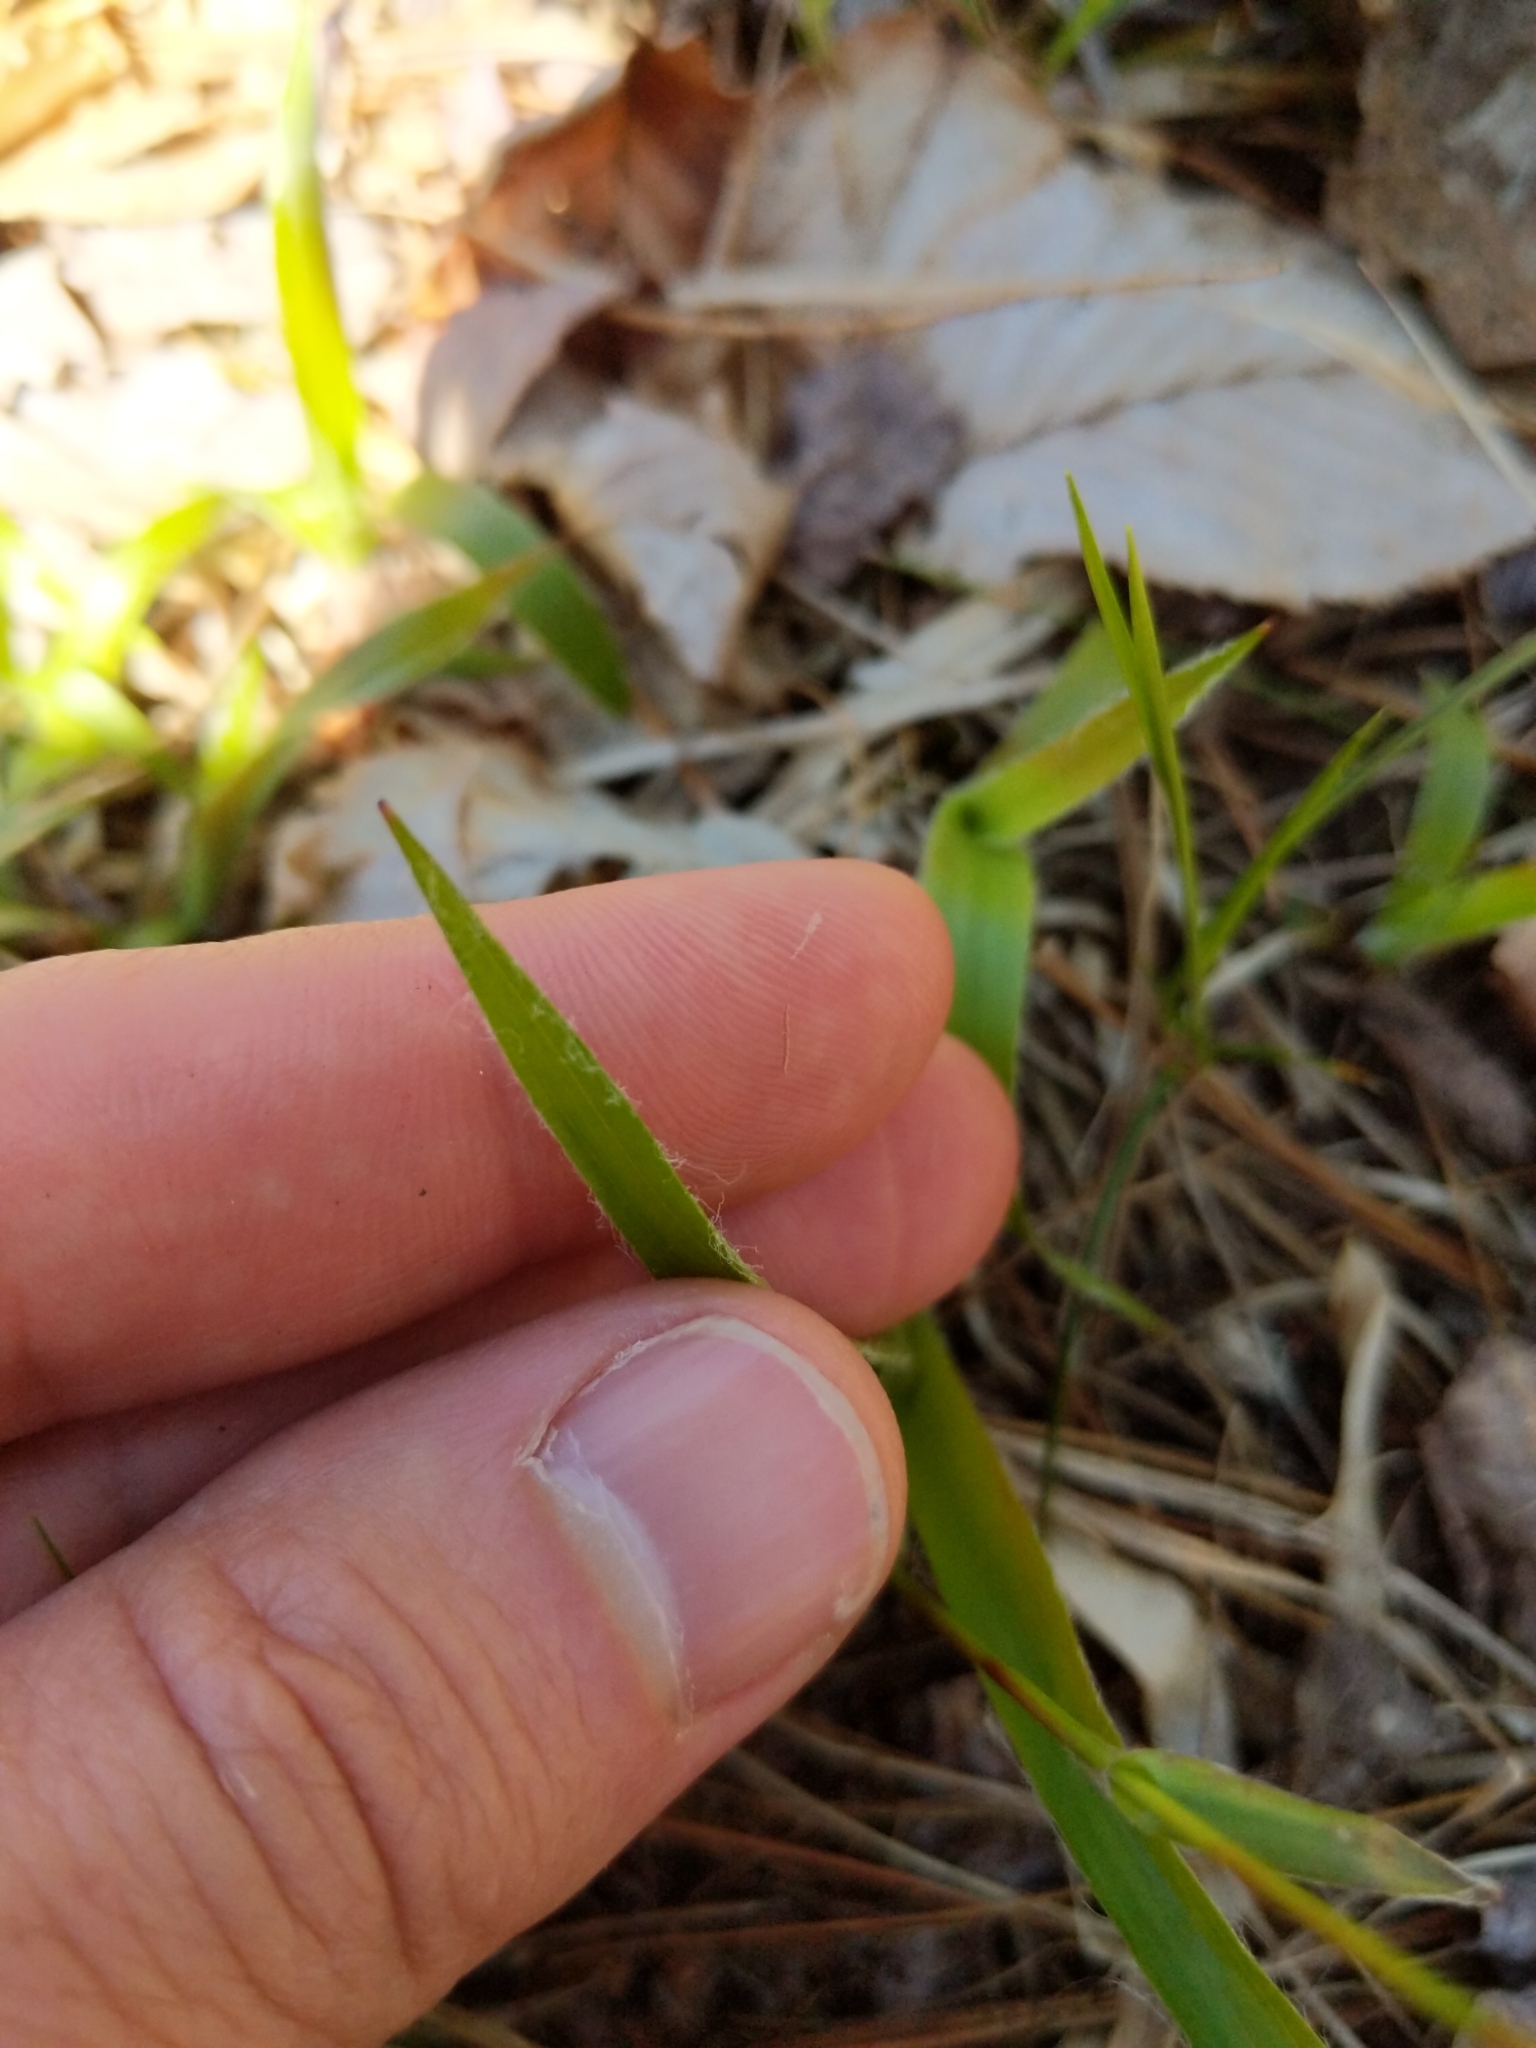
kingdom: Plantae
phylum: Tracheophyta
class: Liliopsida
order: Poales
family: Juncaceae
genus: Luzula
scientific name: Luzula acuminata
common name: Hairy woodrush
